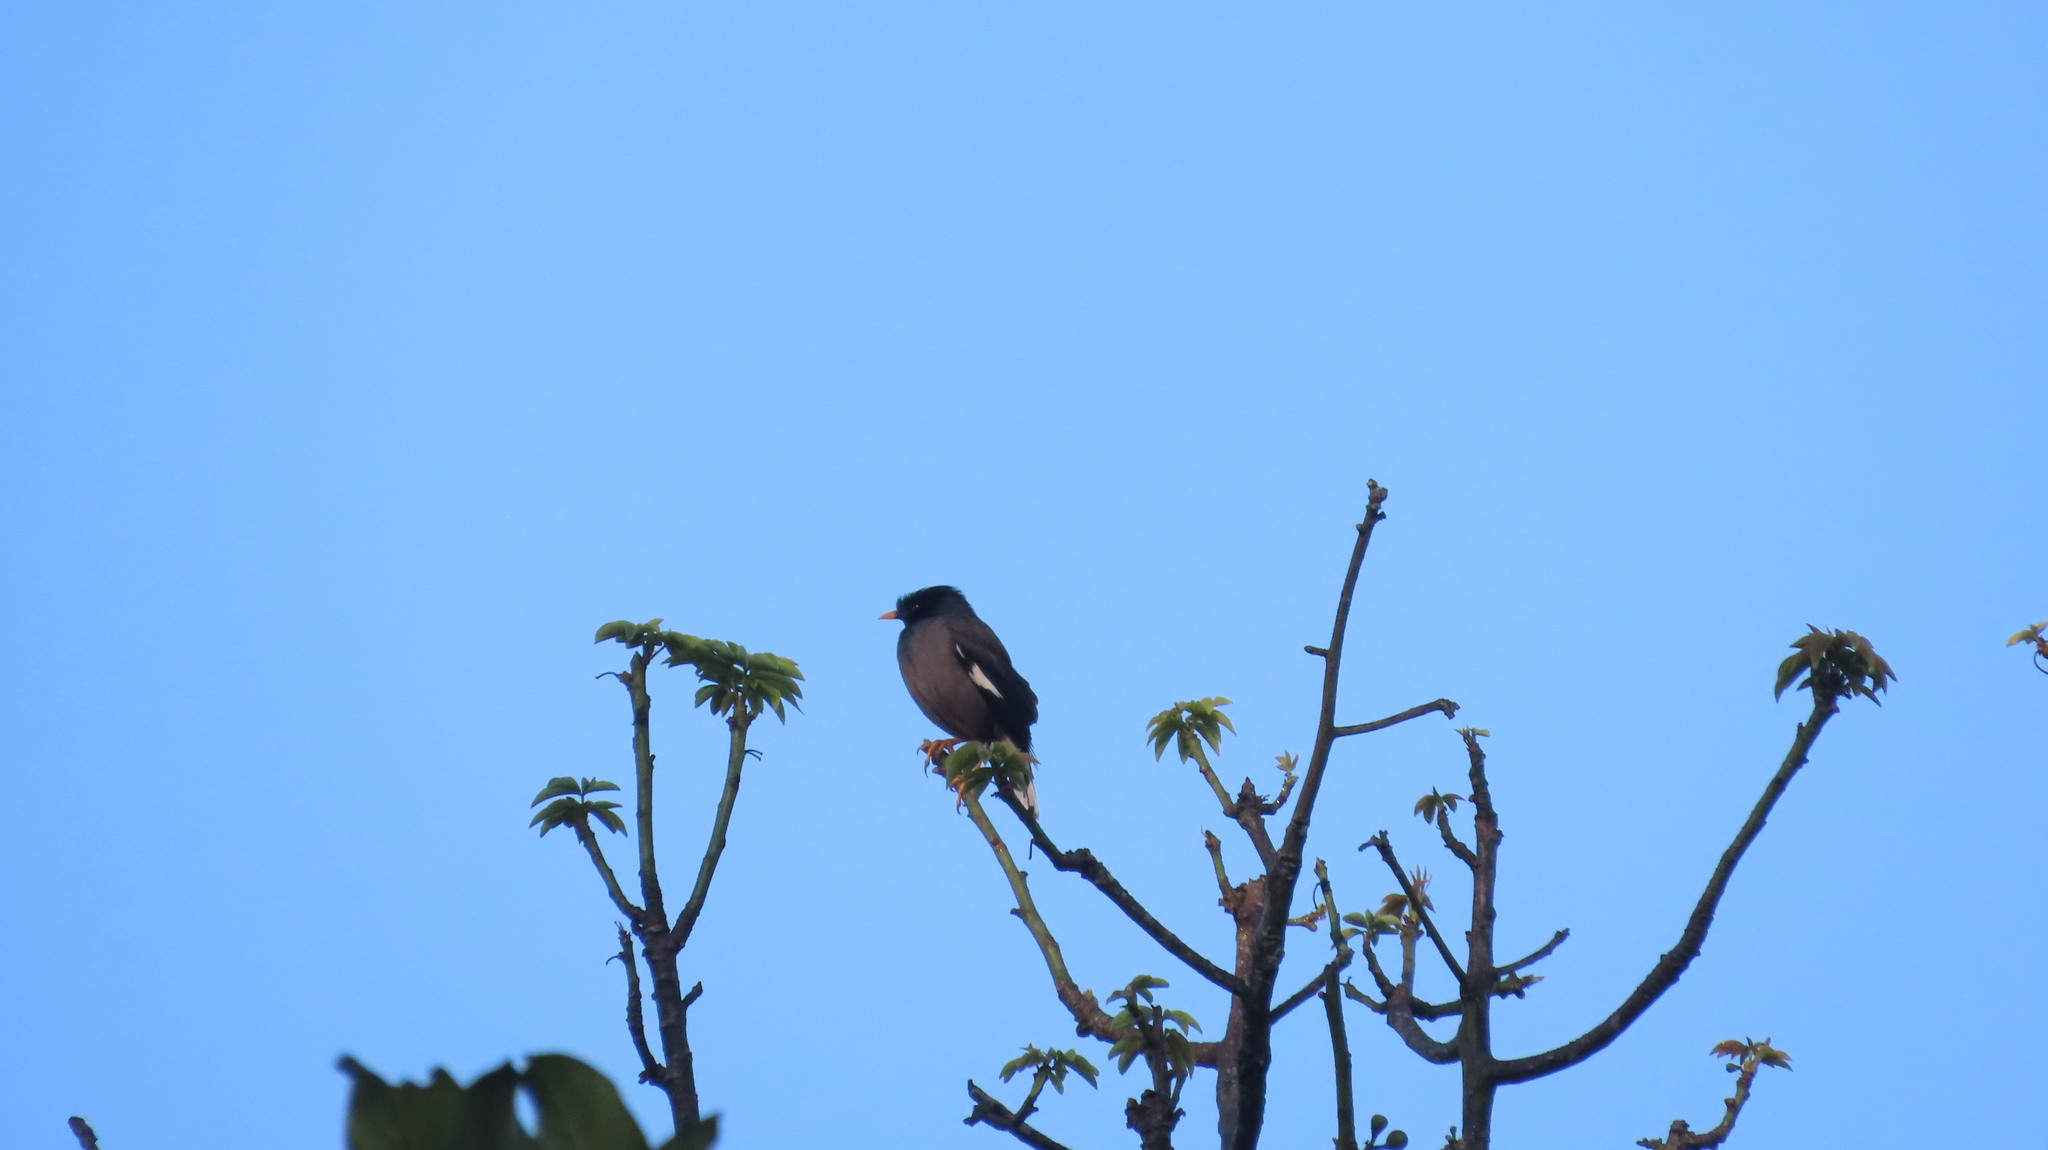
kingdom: Animalia
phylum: Chordata
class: Aves
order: Passeriformes
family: Sturnidae
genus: Acridotheres
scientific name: Acridotheres fuscus
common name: Jungle myna
